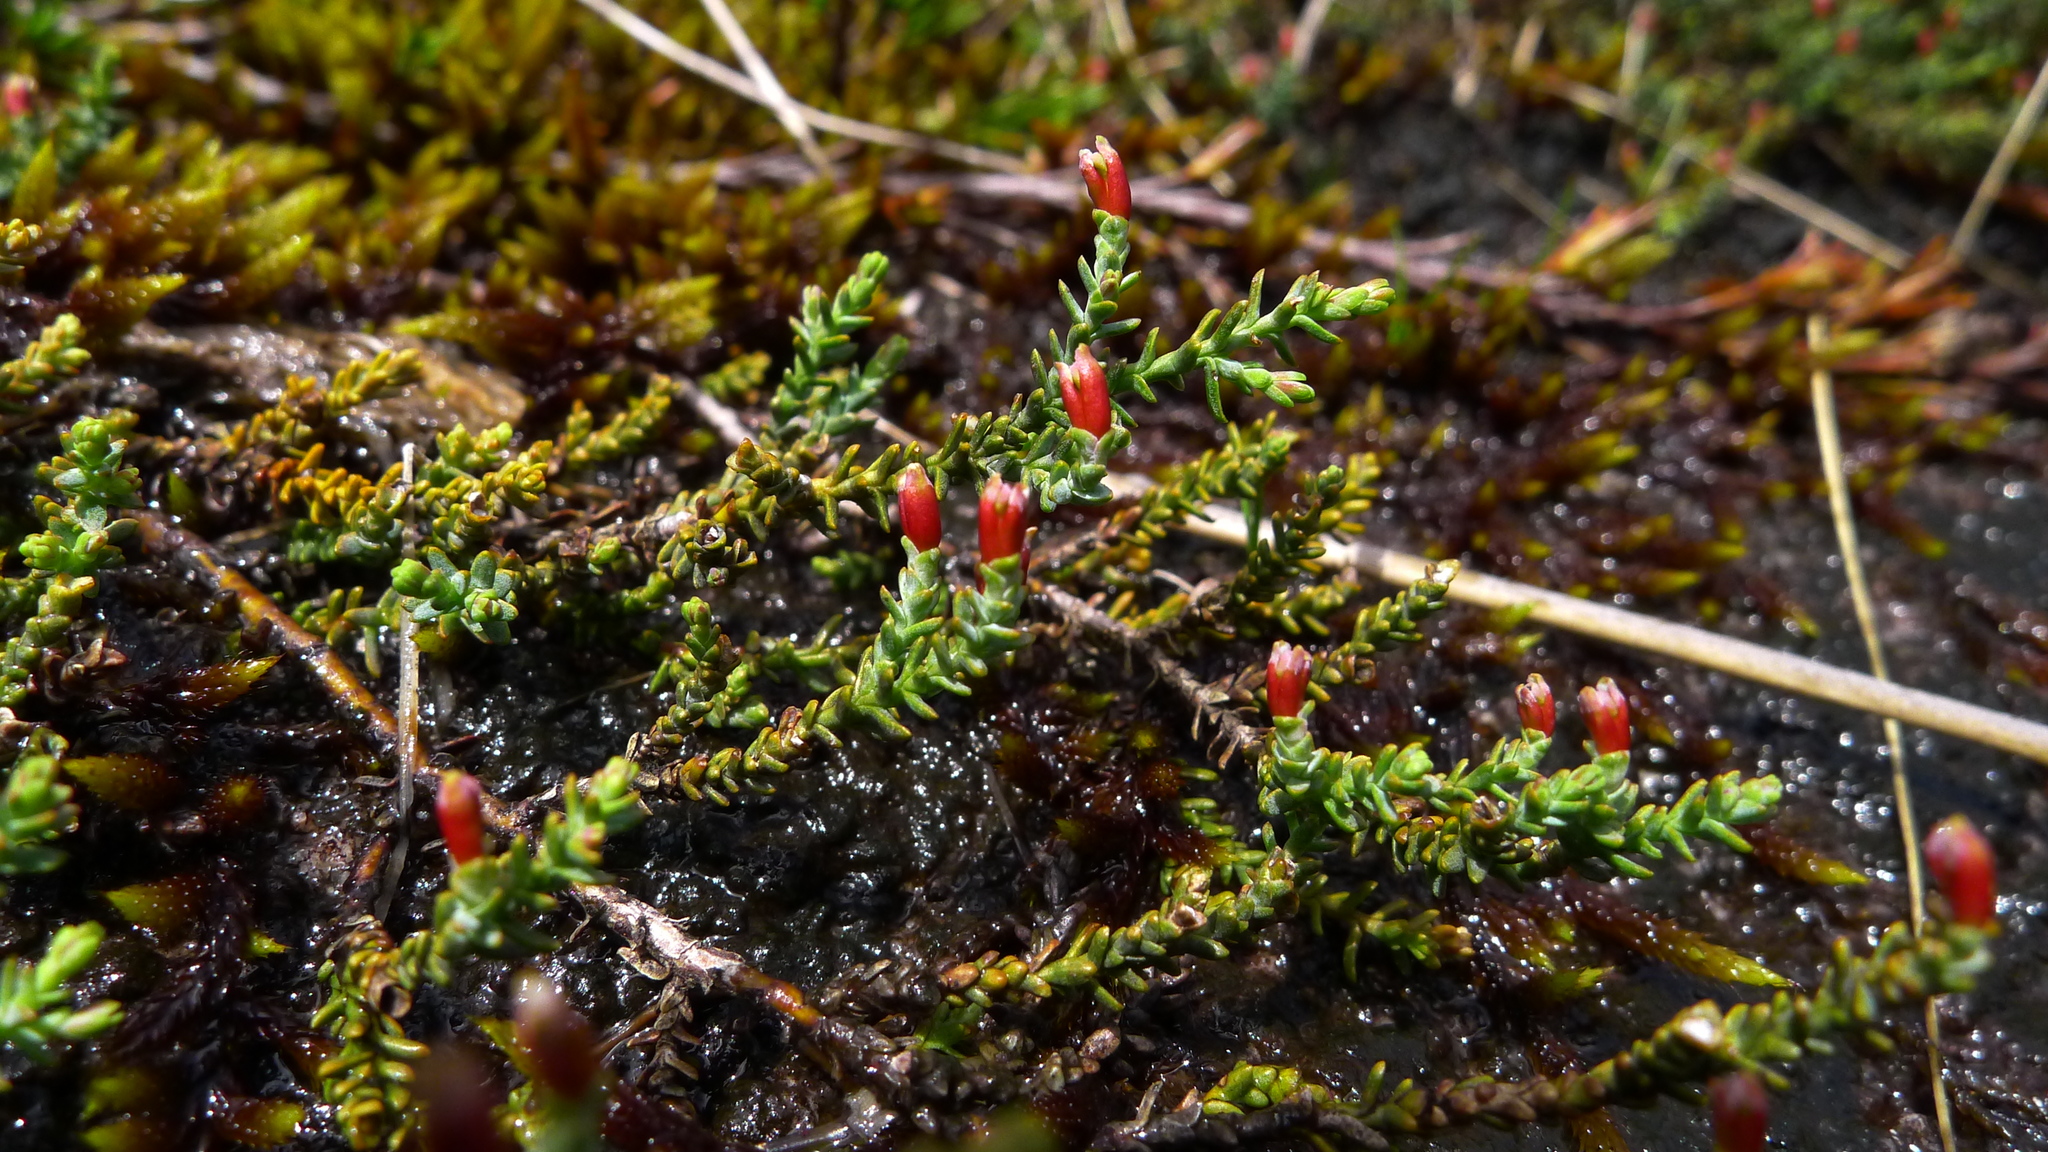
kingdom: Plantae
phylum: Tracheophyta
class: Pinopsida
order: Pinales
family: Podocarpaceae
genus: Lepidothamnus
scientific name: Lepidothamnus laxifolius
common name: Pygmy pine
